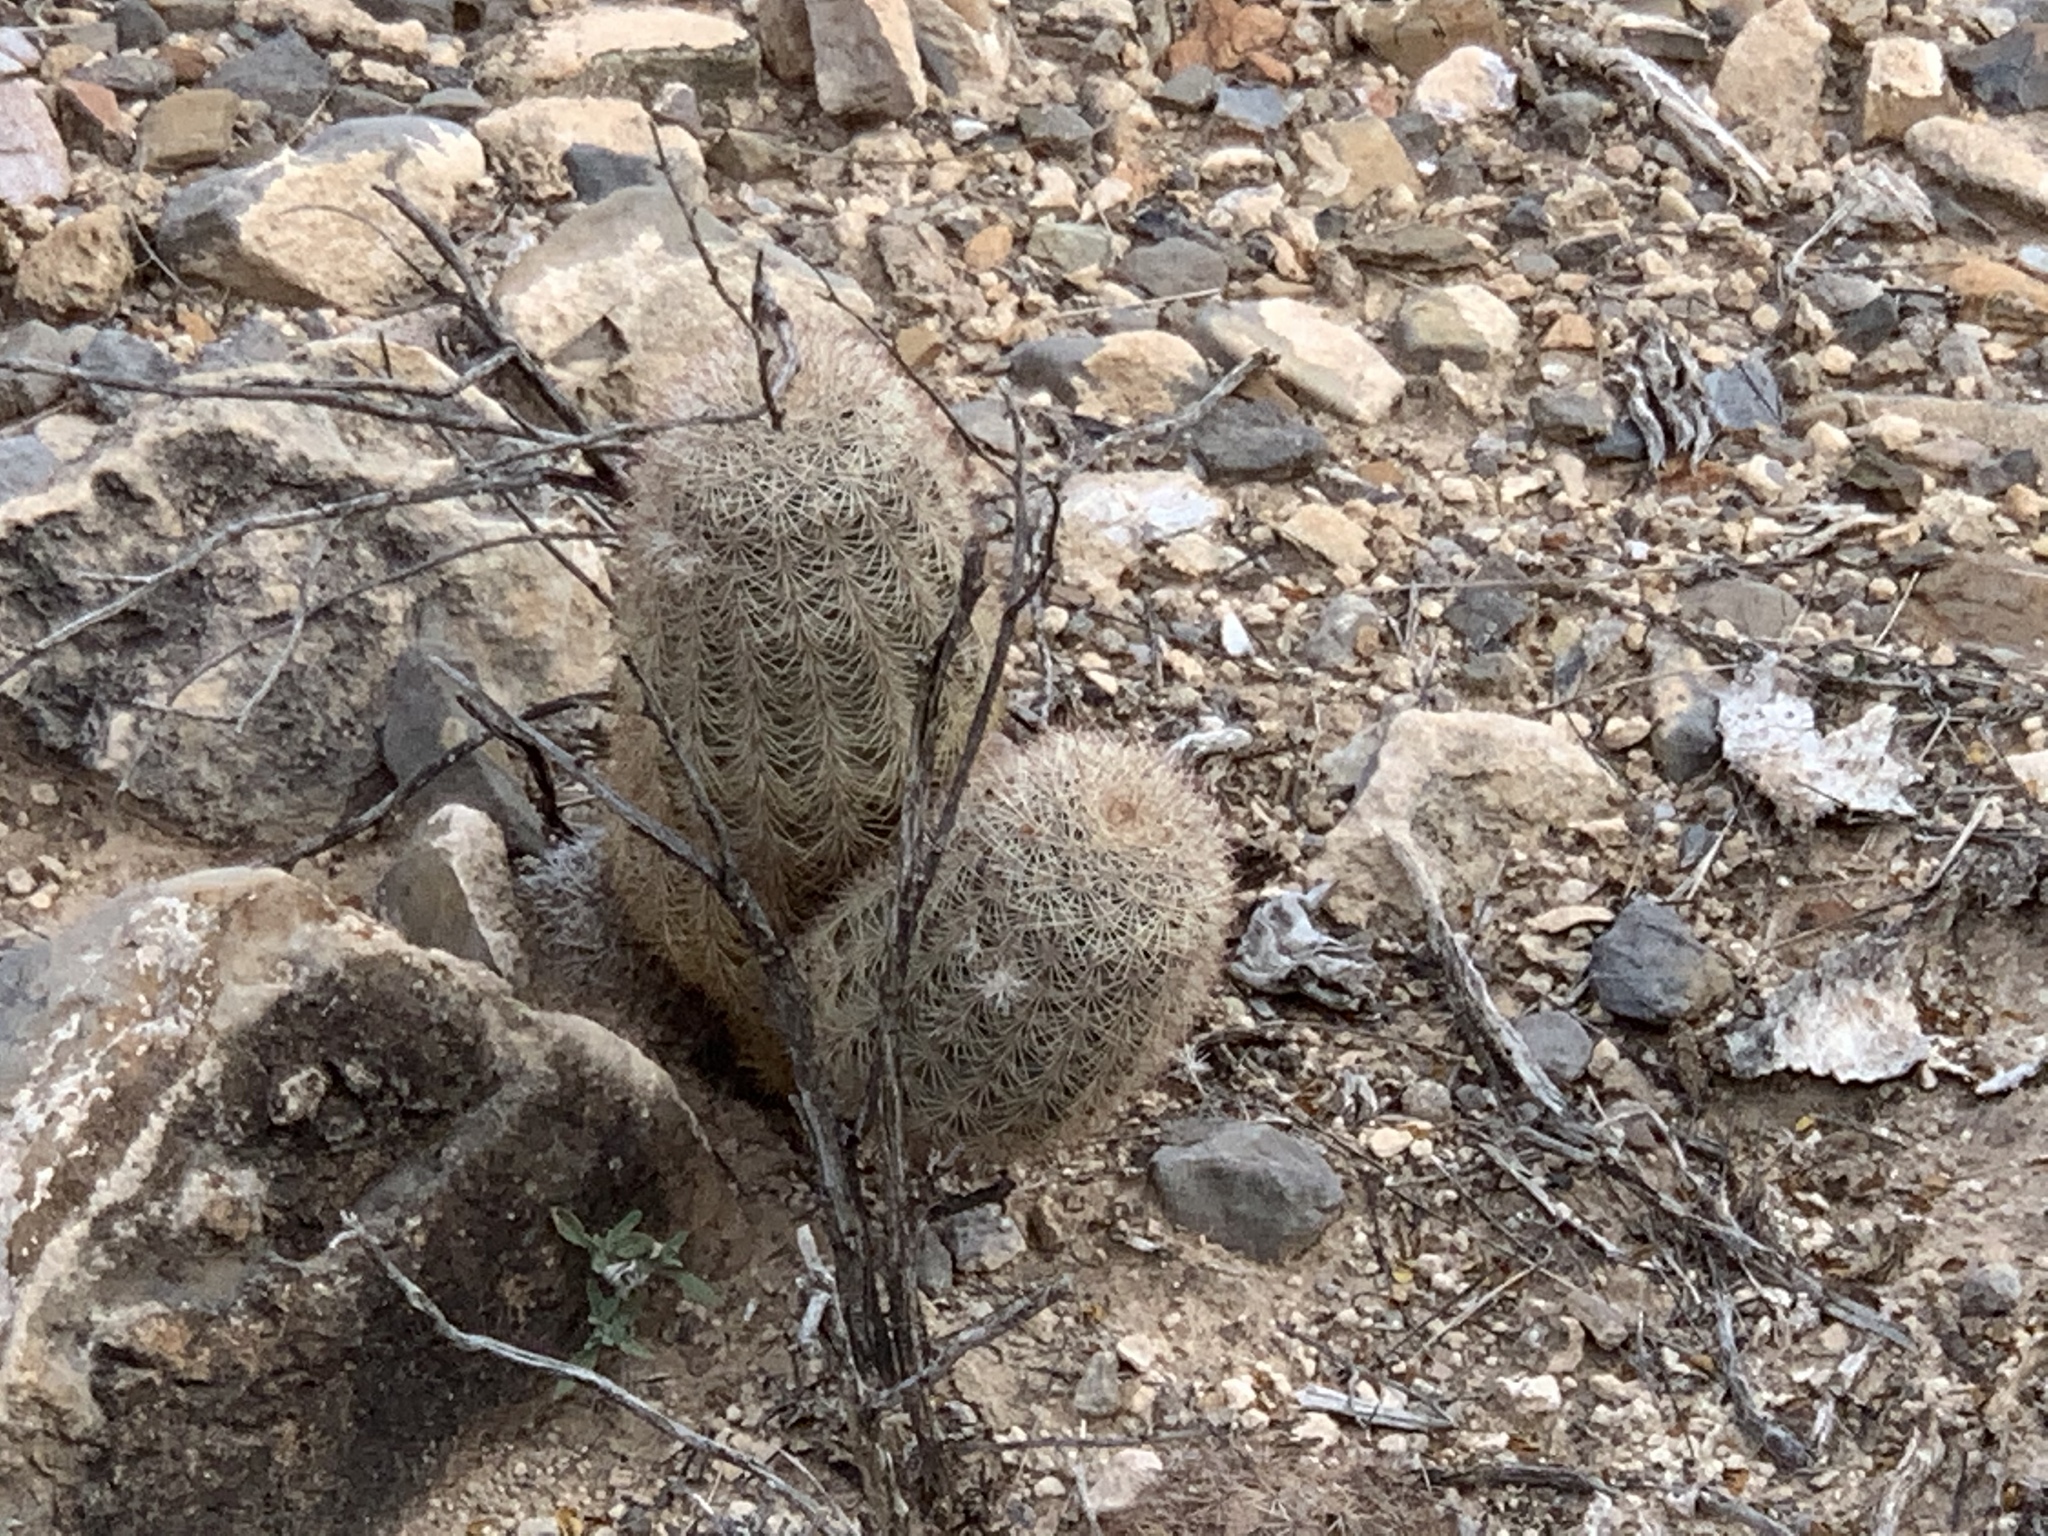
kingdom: Plantae
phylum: Tracheophyta
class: Magnoliopsida
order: Caryophyllales
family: Cactaceae
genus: Echinocereus
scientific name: Echinocereus dasyacanthus
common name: Spiny hedgehog cactus
